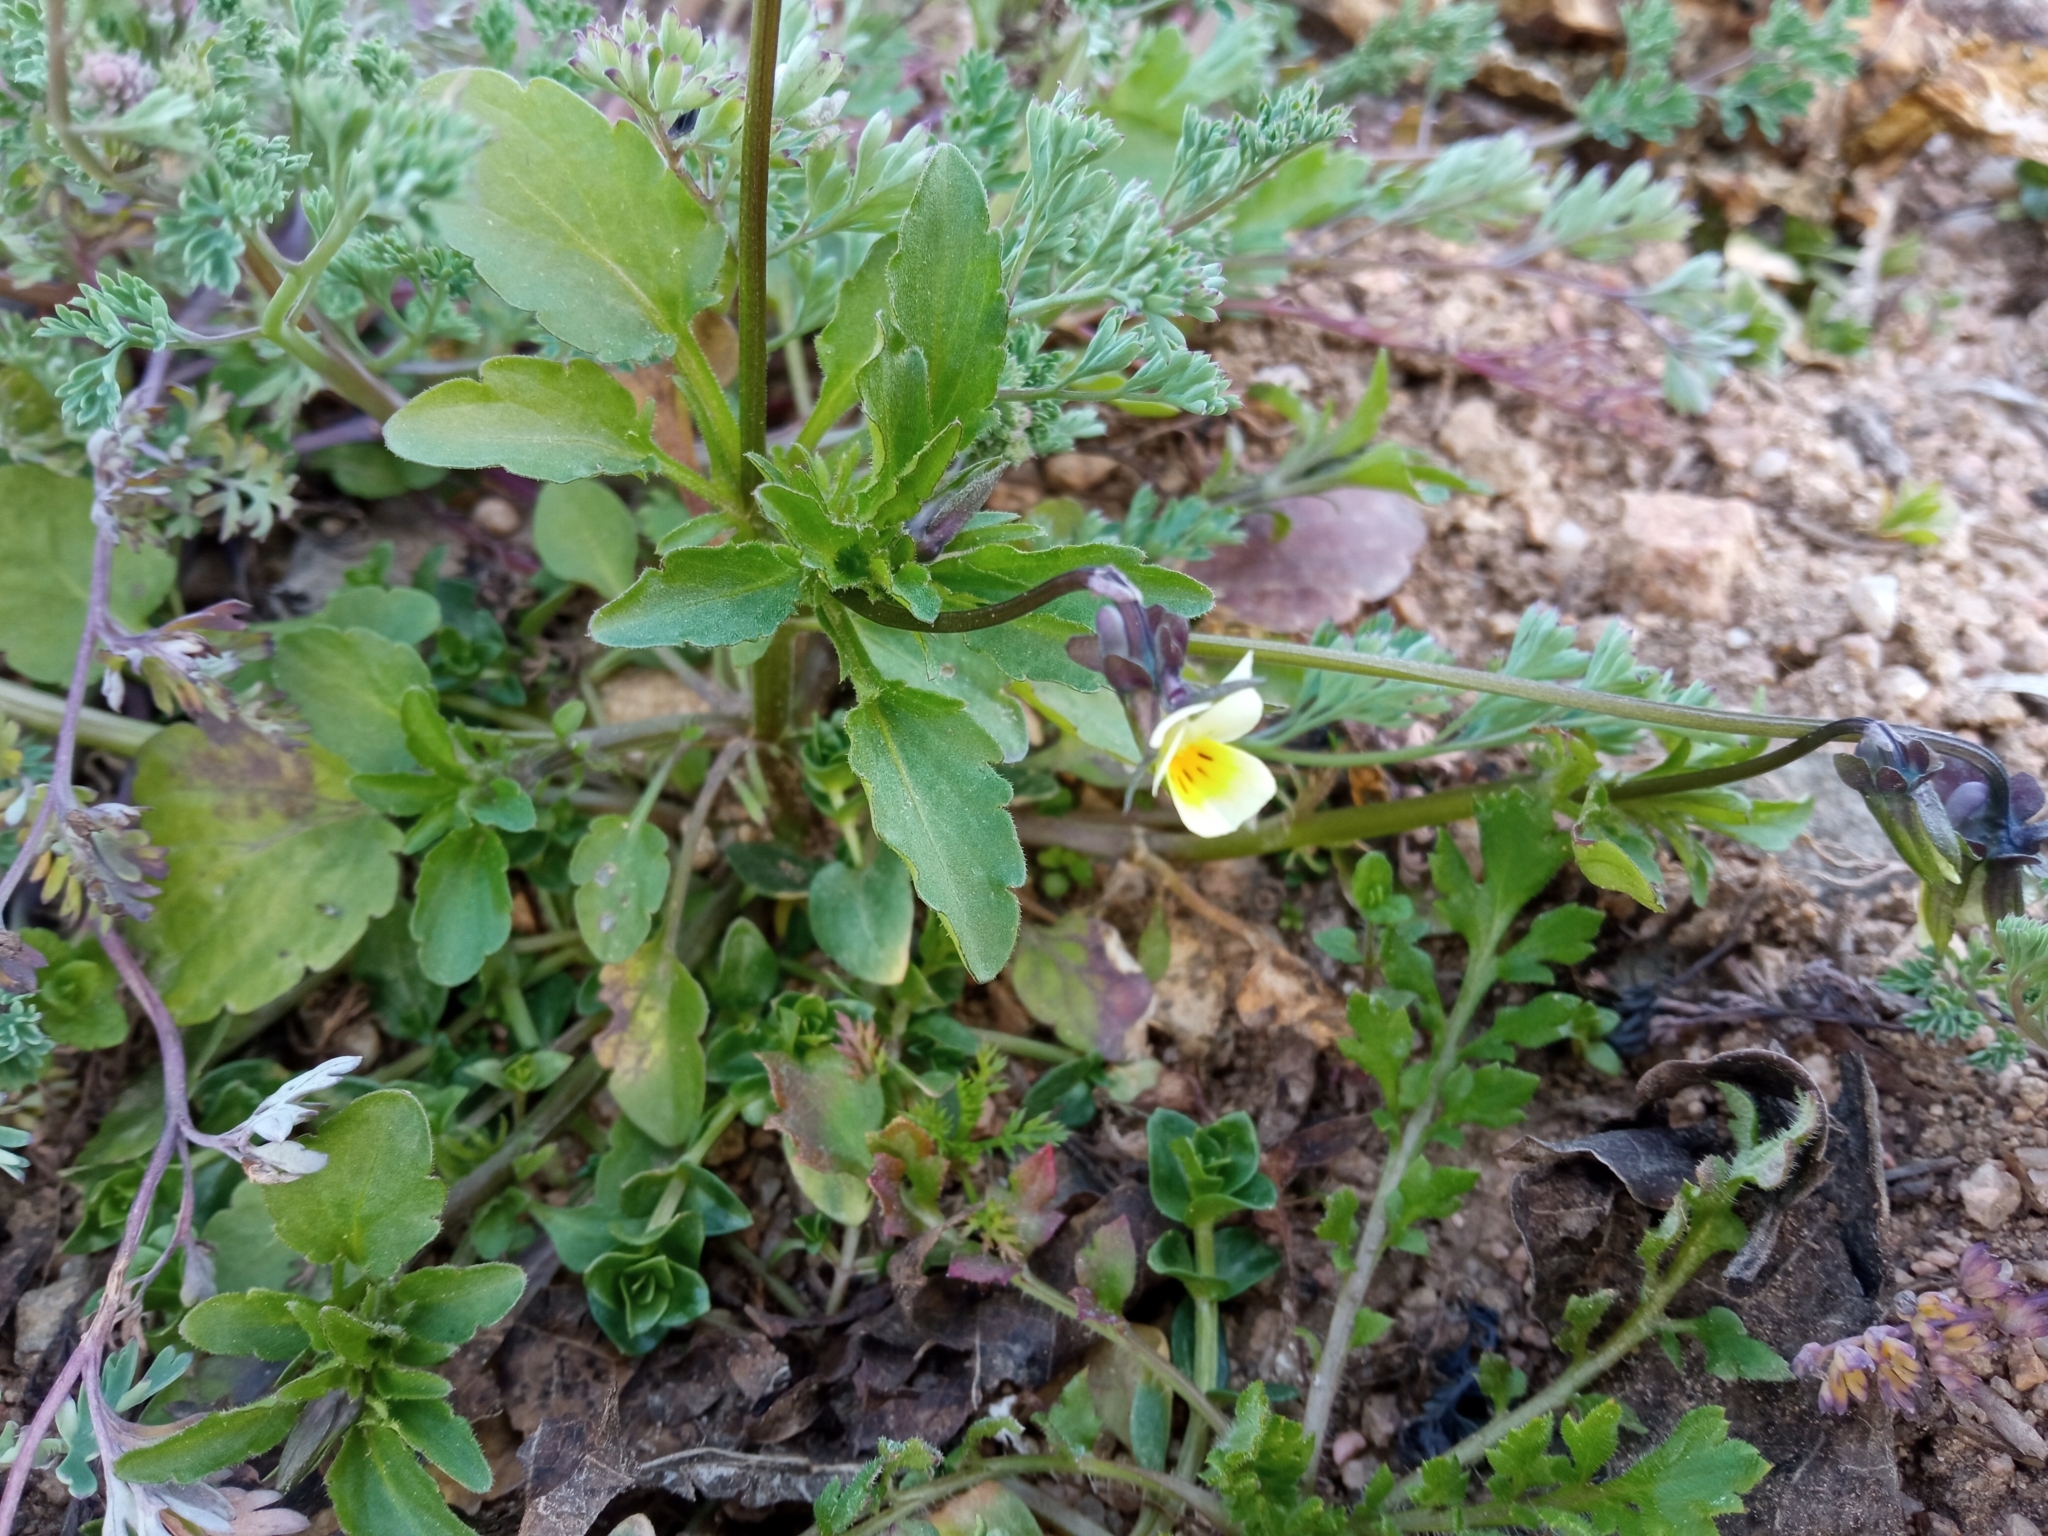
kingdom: Plantae
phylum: Tracheophyta
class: Magnoliopsida
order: Malpighiales
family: Violaceae
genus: Viola
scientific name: Viola arvensis
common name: Field pansy
